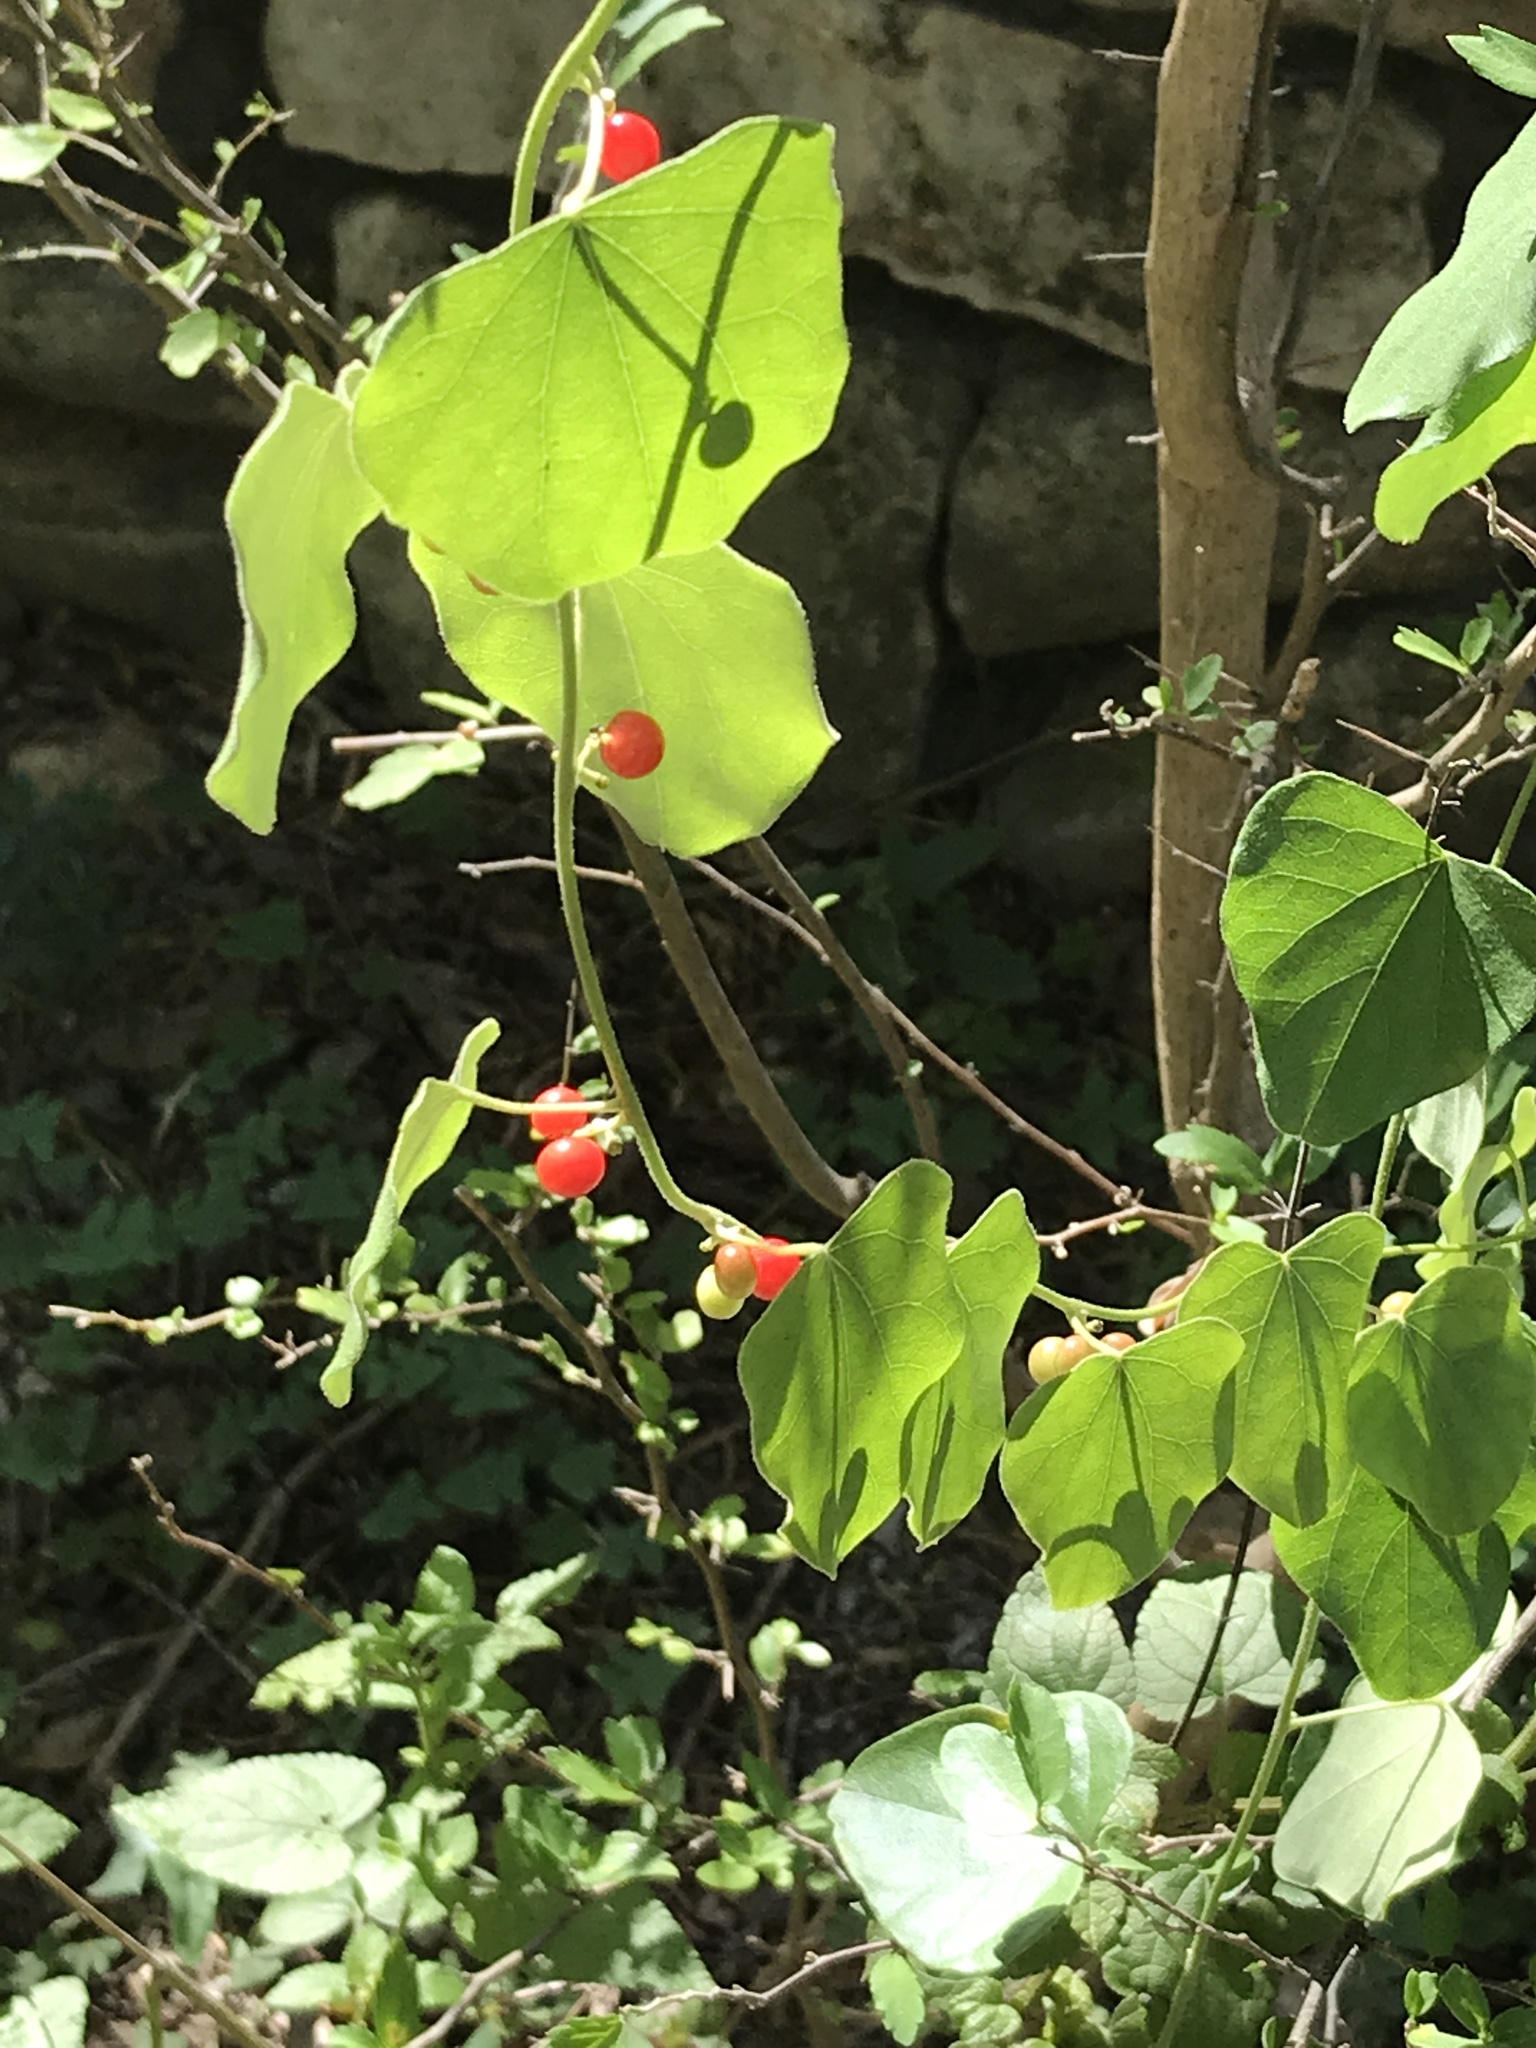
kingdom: Plantae
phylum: Tracheophyta
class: Magnoliopsida
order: Ranunculales
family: Menispermaceae
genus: Cocculus
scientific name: Cocculus carolinus
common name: Carolina moonseed
